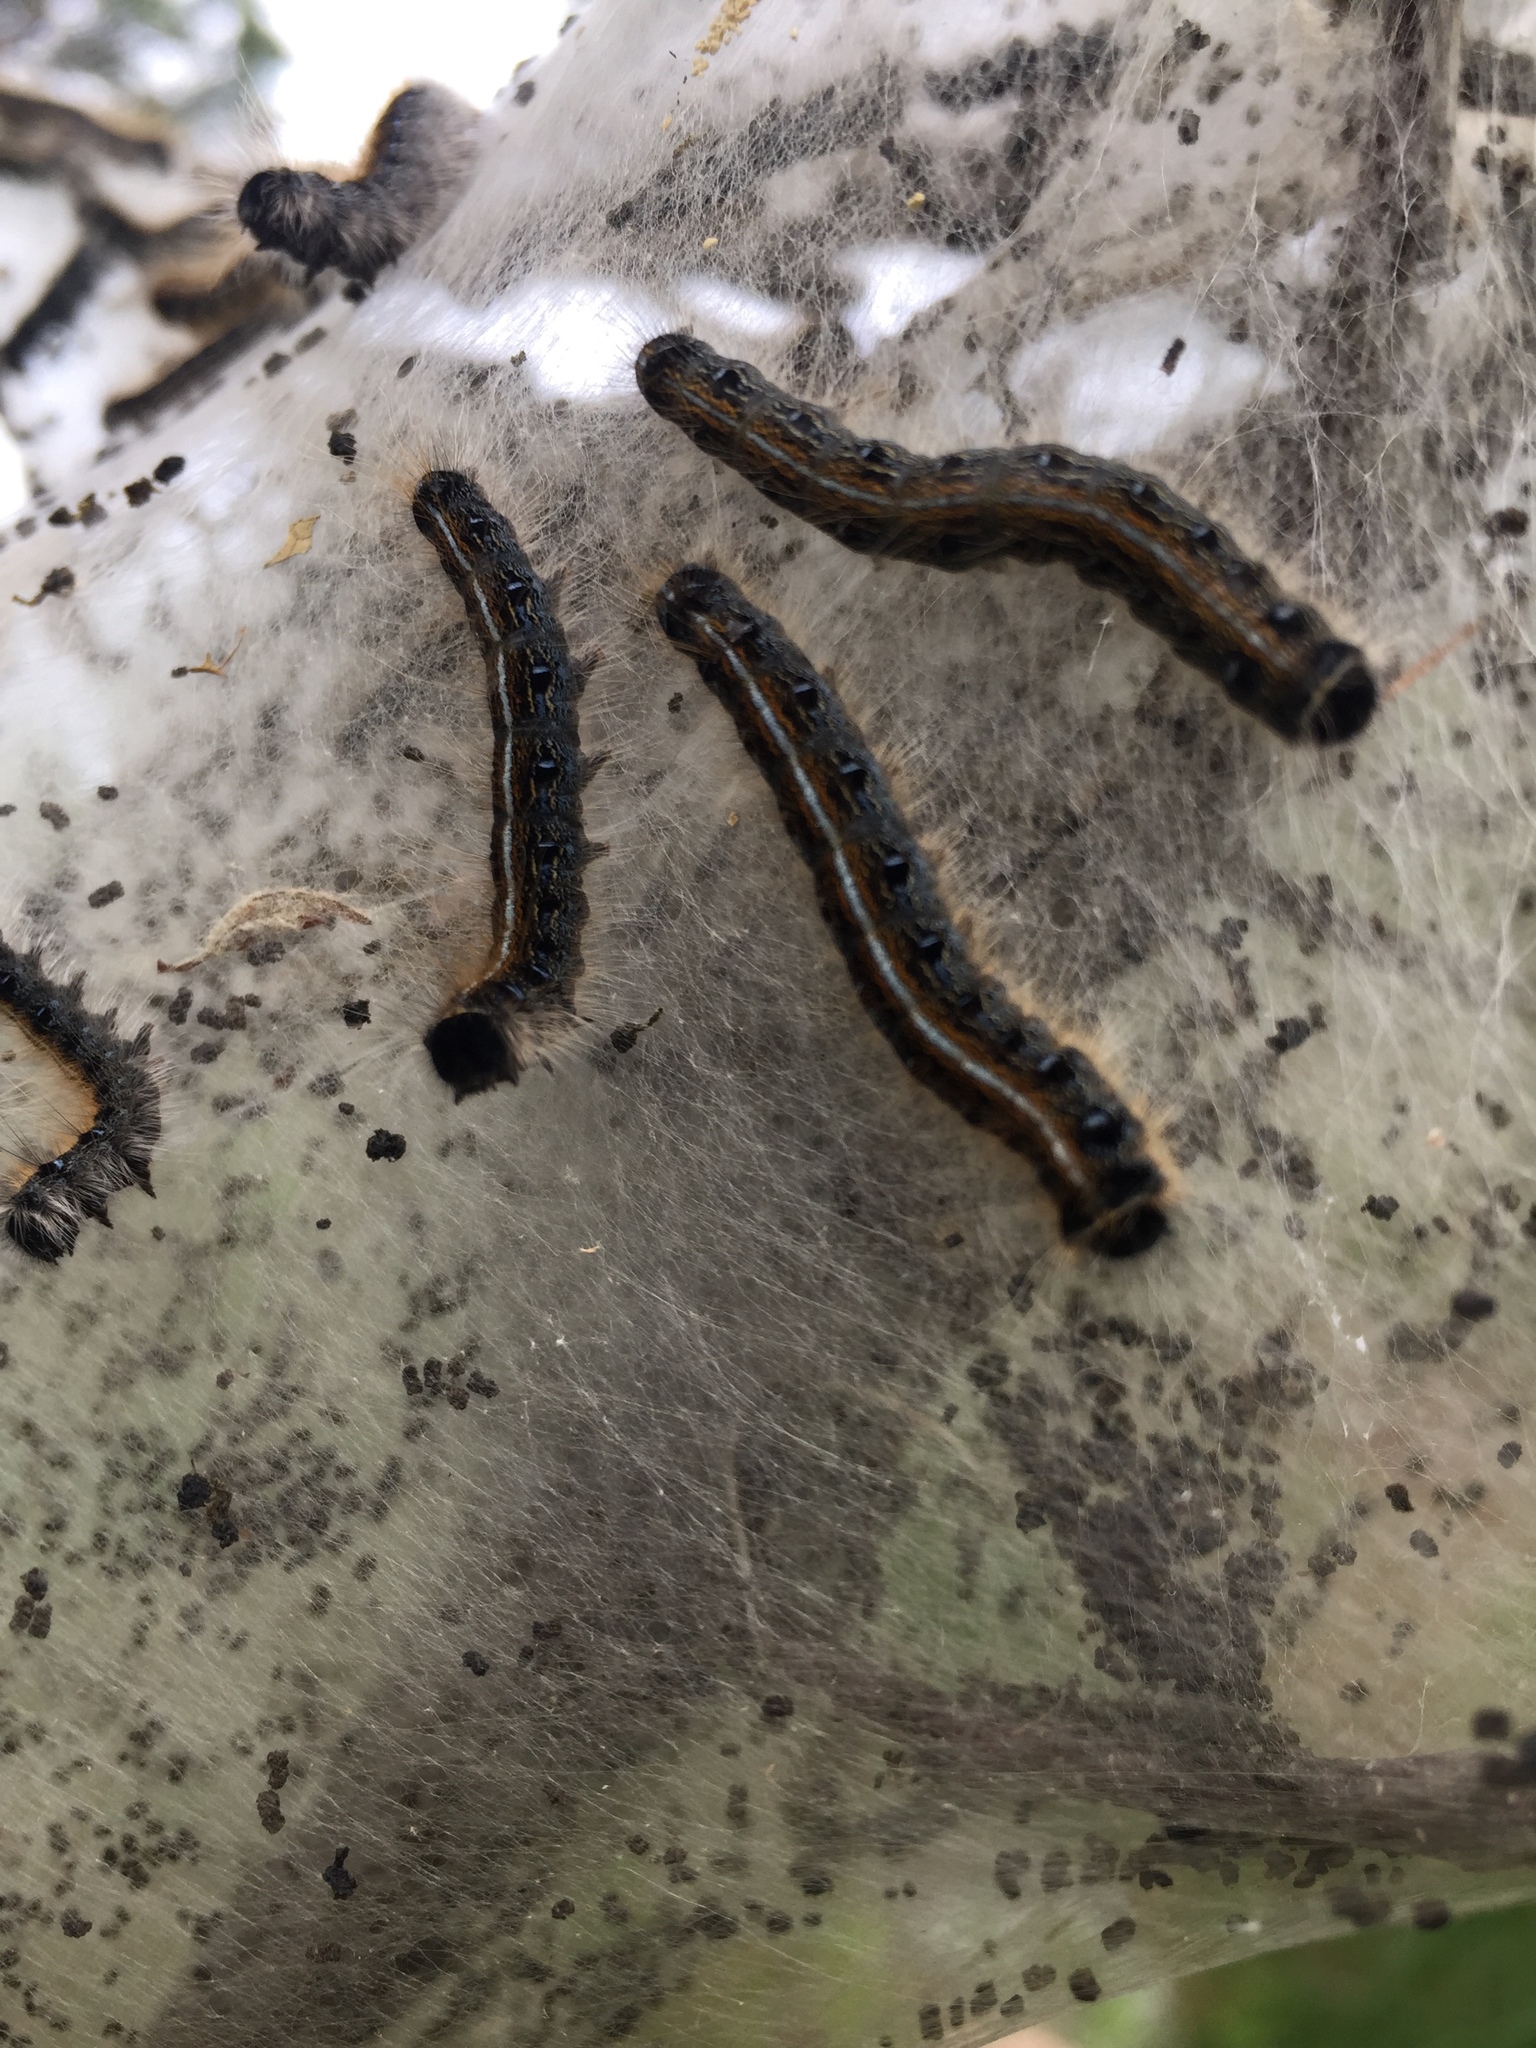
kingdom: Animalia
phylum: Arthropoda
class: Insecta
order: Lepidoptera
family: Lasiocampidae
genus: Malacosoma
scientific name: Malacosoma americana
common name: Eastern tent caterpillar moth
